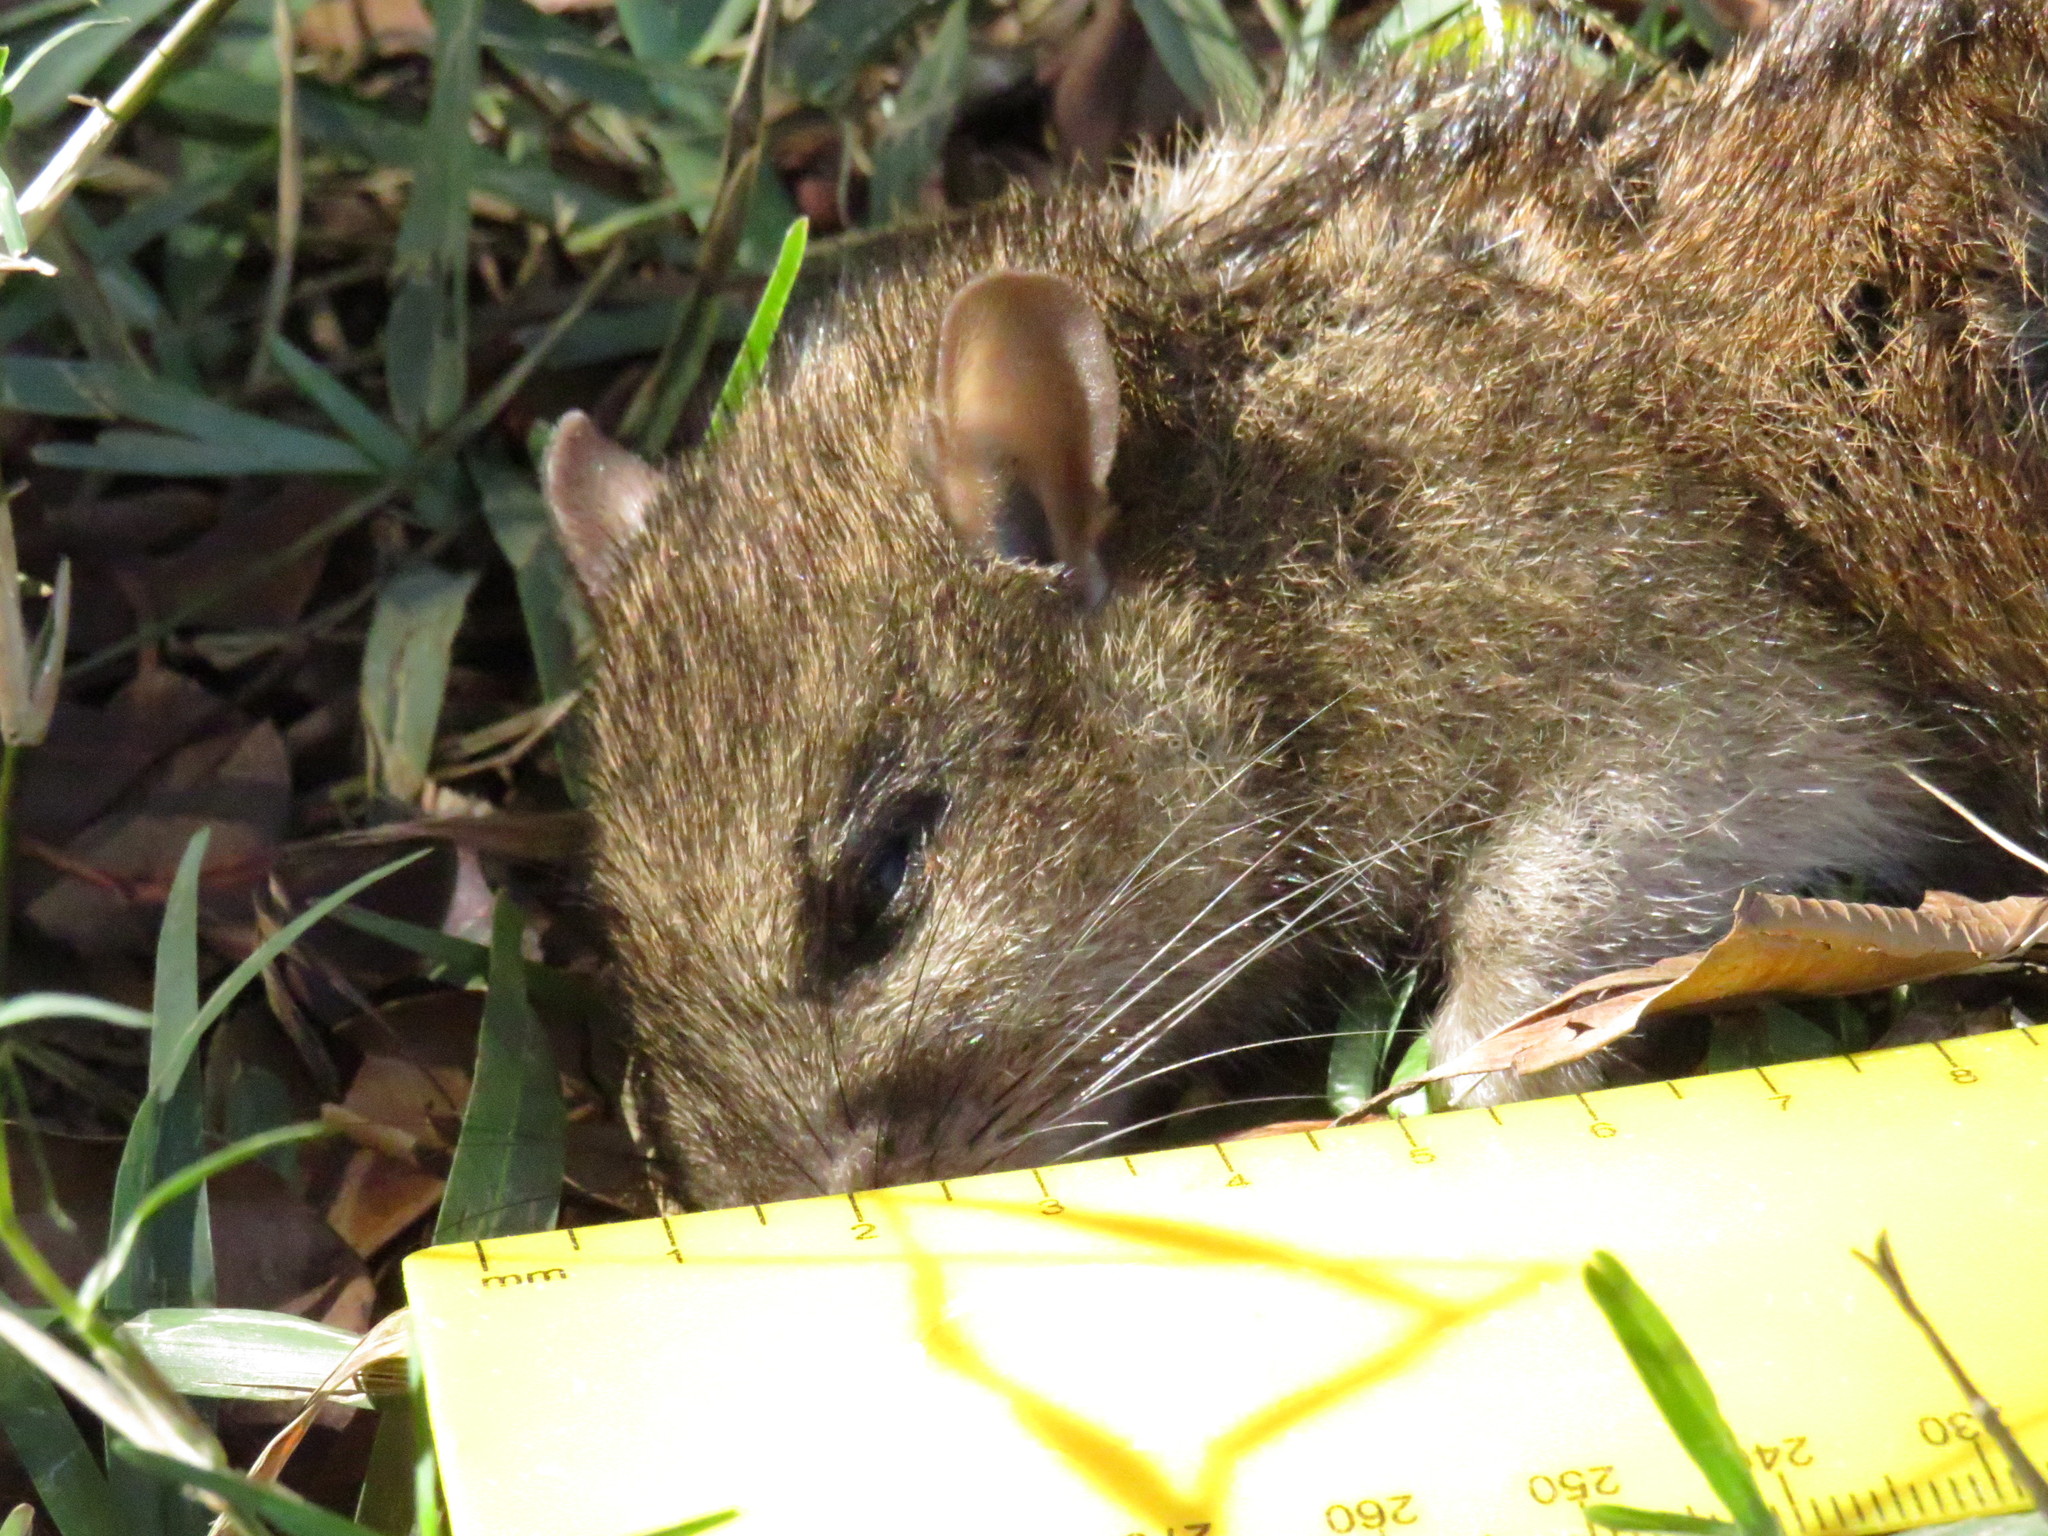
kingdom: Animalia
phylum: Chordata
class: Mammalia
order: Rodentia
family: Muridae
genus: Rattus
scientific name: Rattus norvegicus
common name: Brown rat
